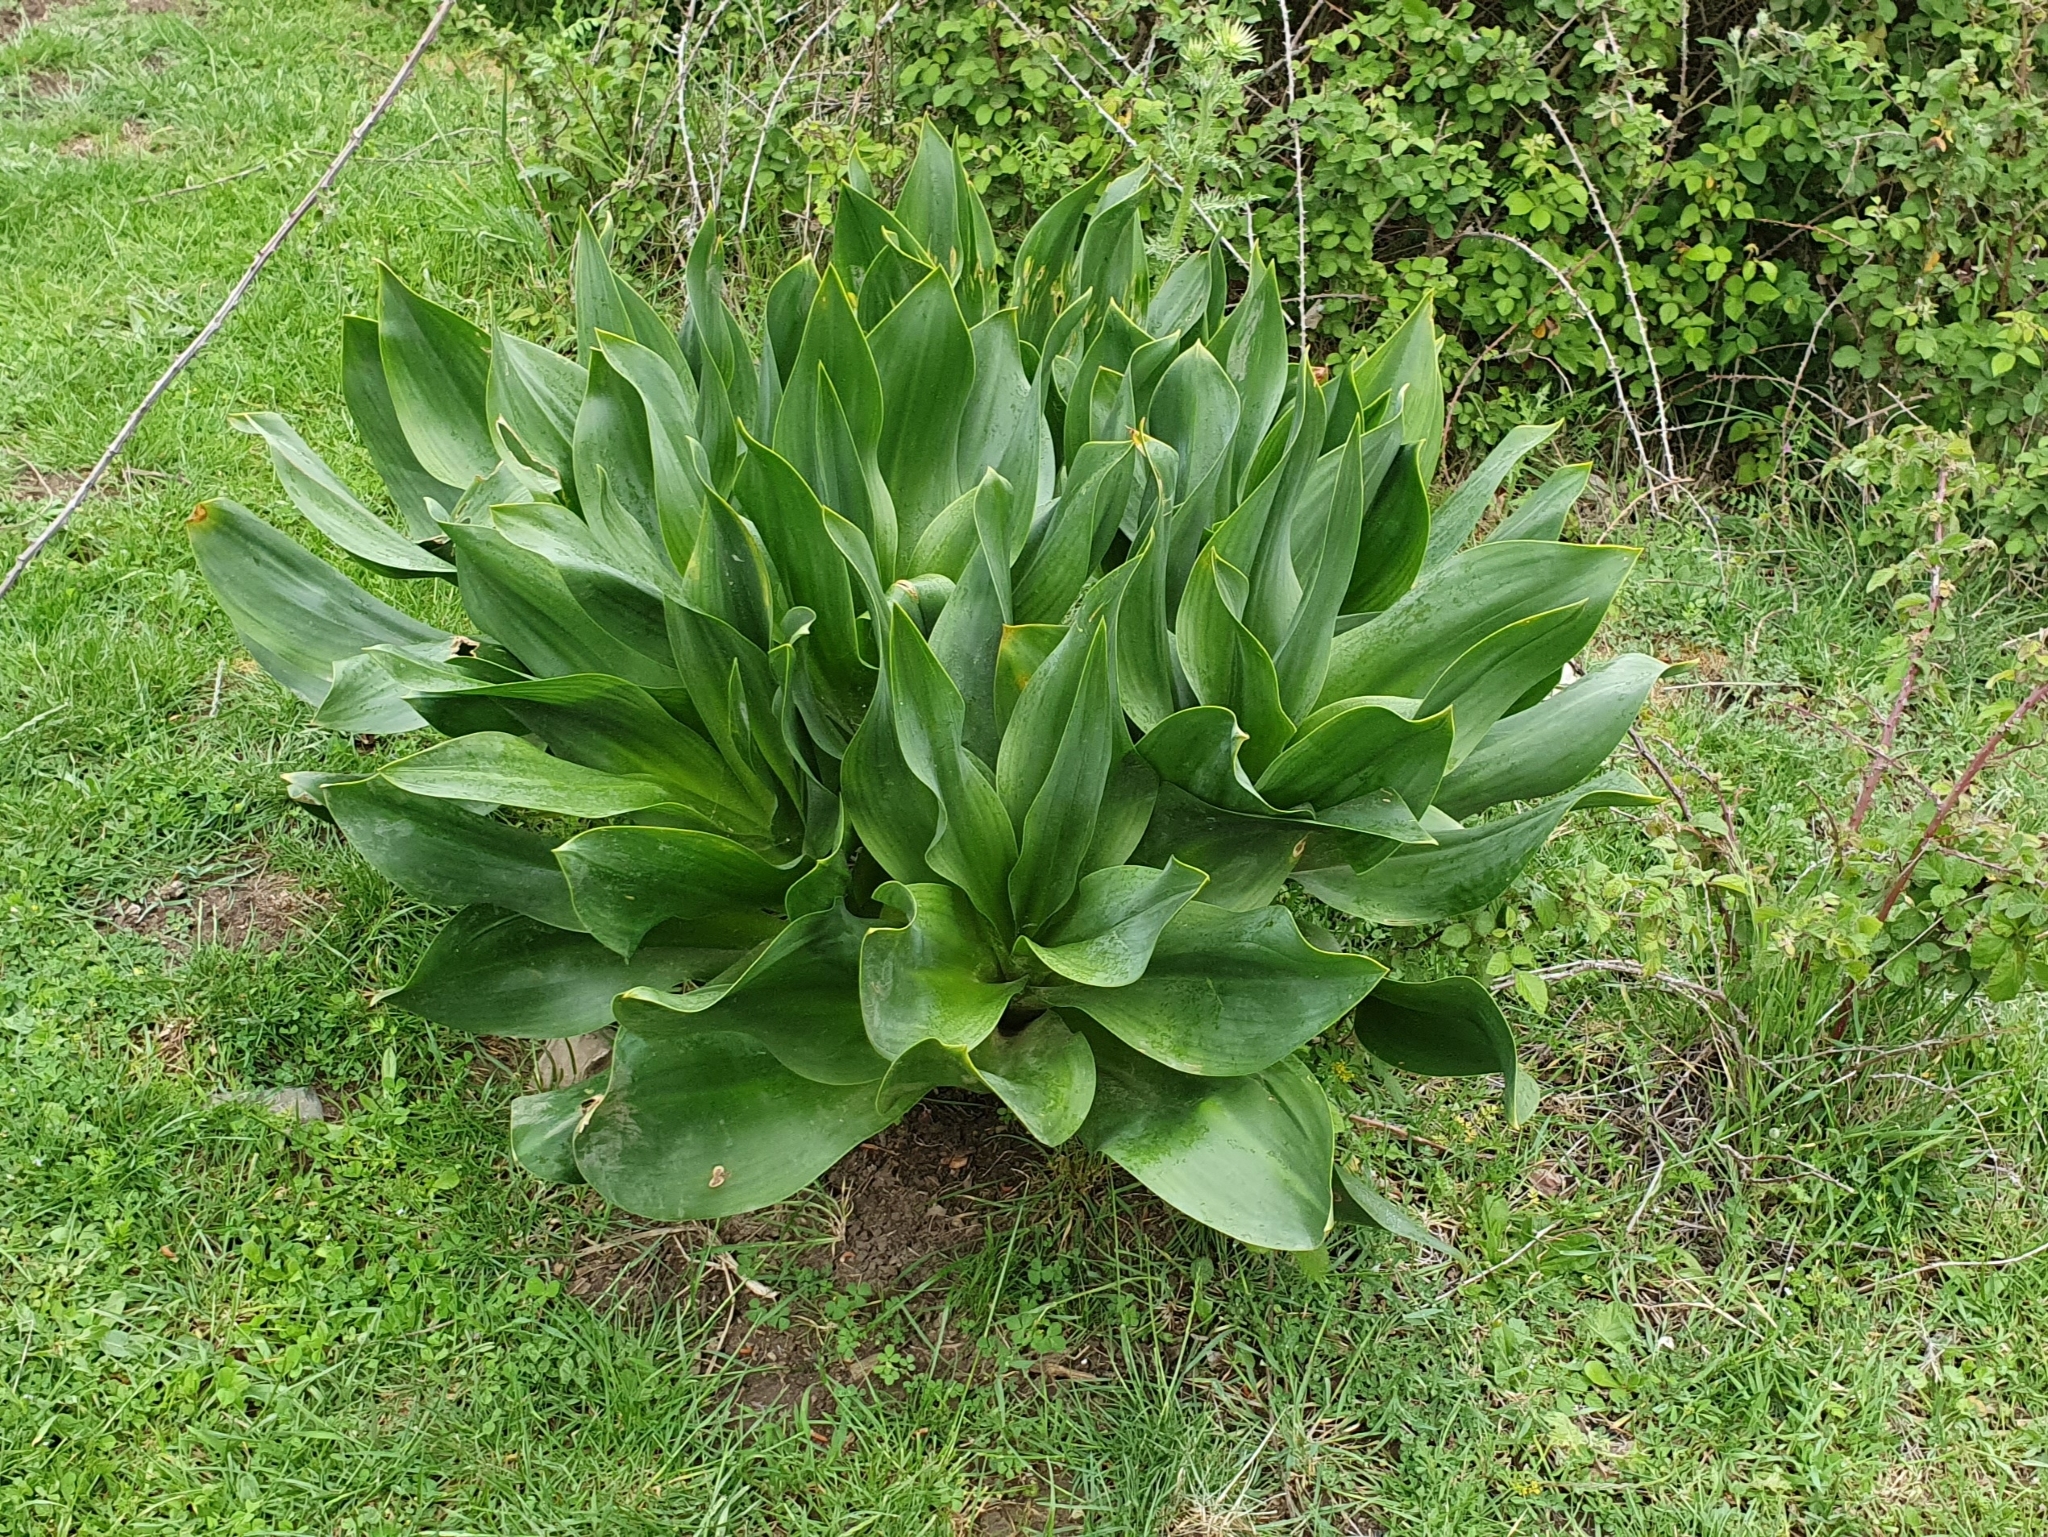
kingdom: Plantae
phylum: Tracheophyta
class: Liliopsida
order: Asparagales
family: Asparagaceae
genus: Drimia
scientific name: Drimia numidica
